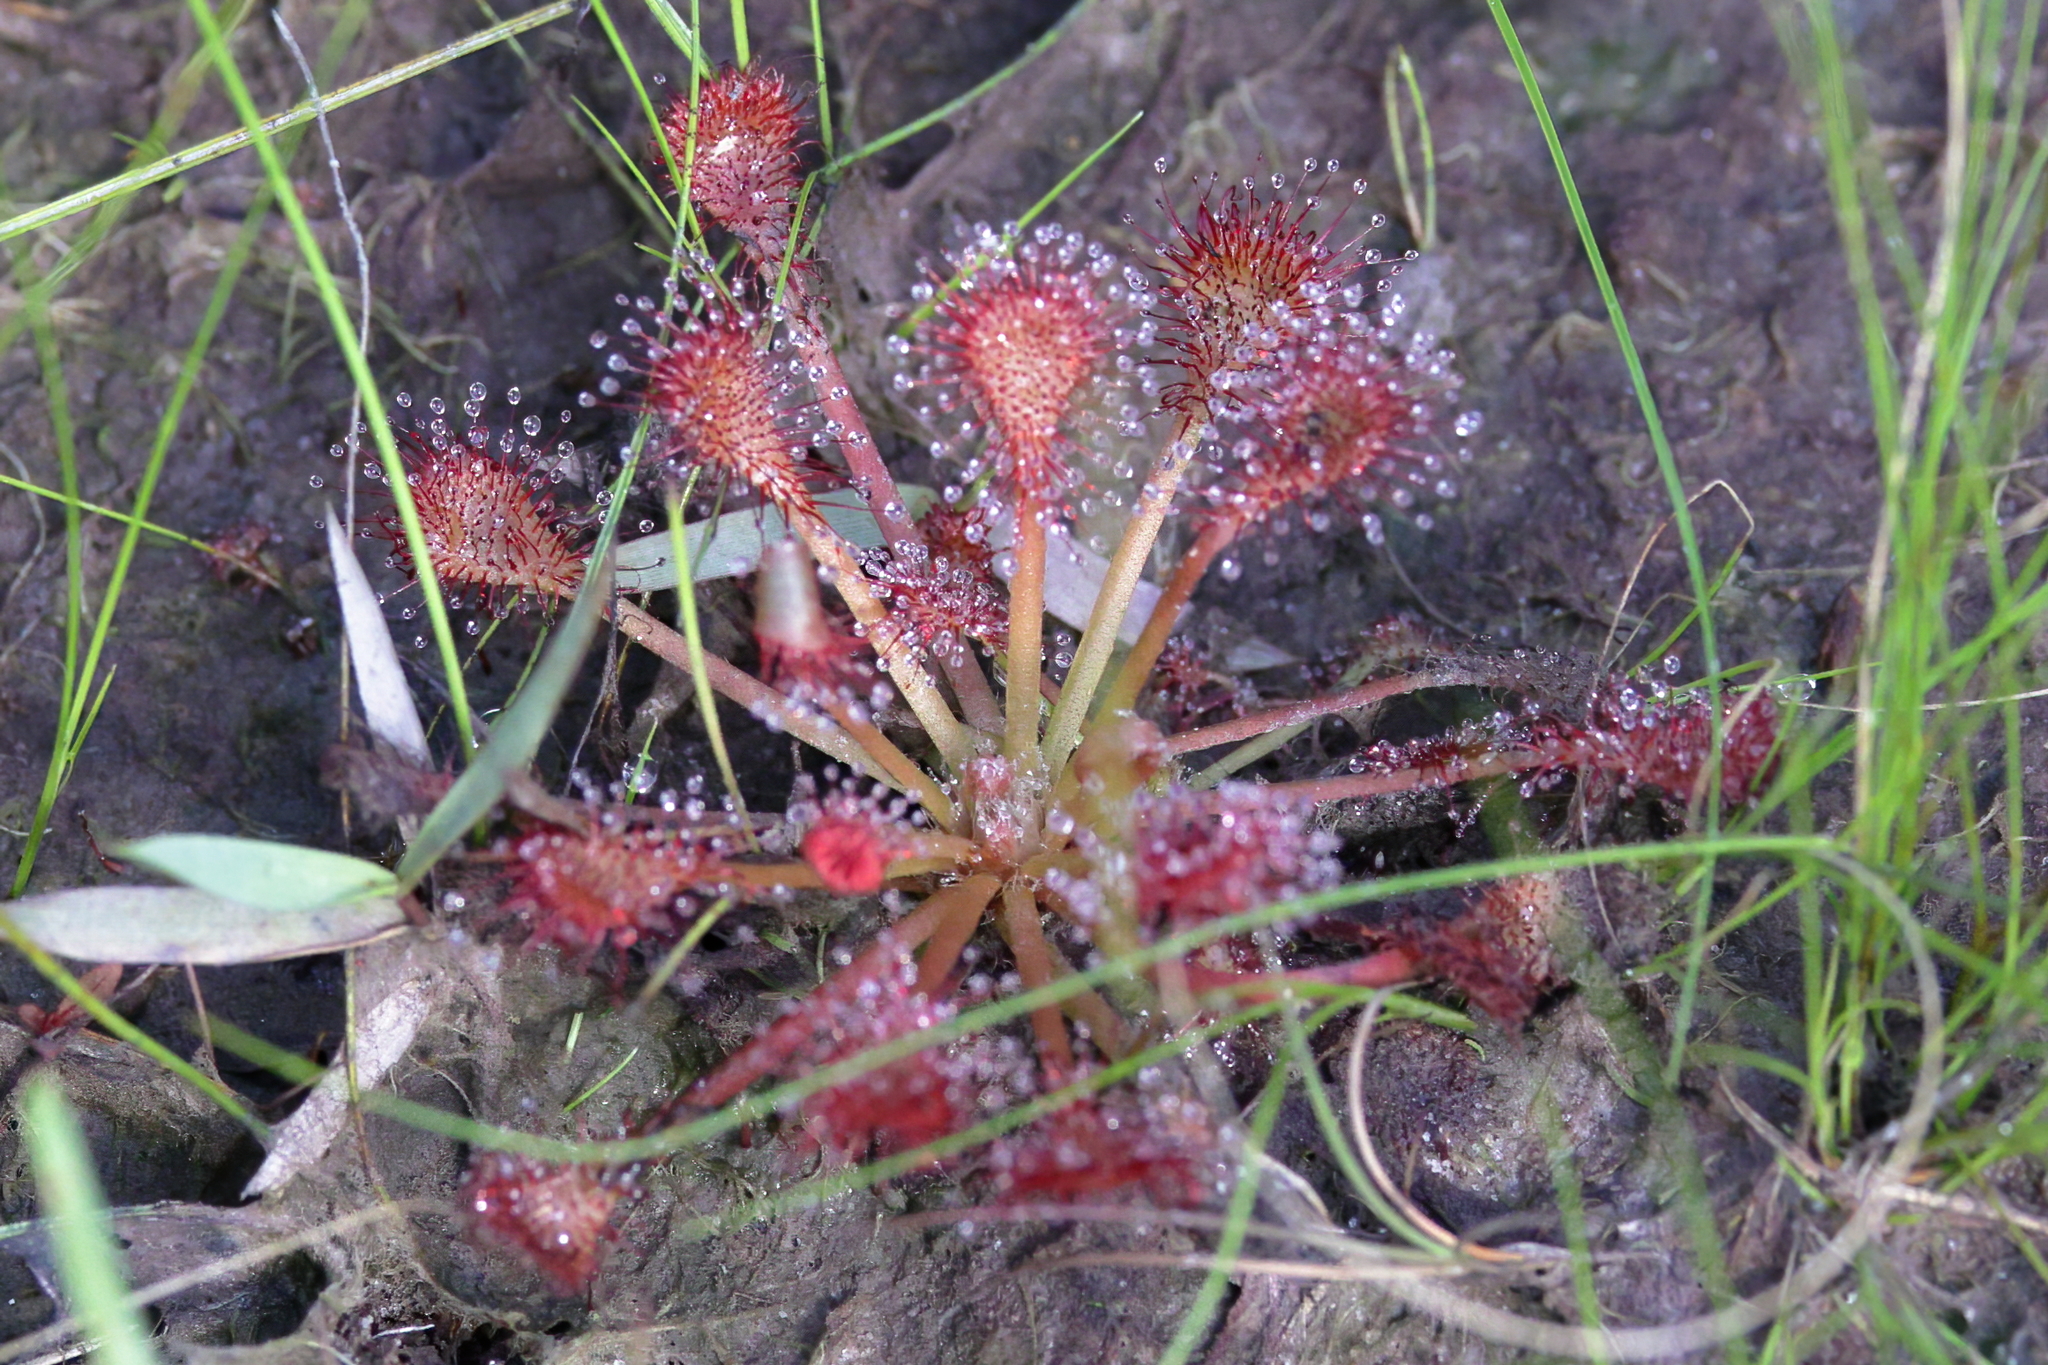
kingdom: Plantae
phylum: Tracheophyta
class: Magnoliopsida
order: Caryophyllales
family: Droseraceae
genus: Drosera
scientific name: Drosera capillaris
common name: Pink sundew
